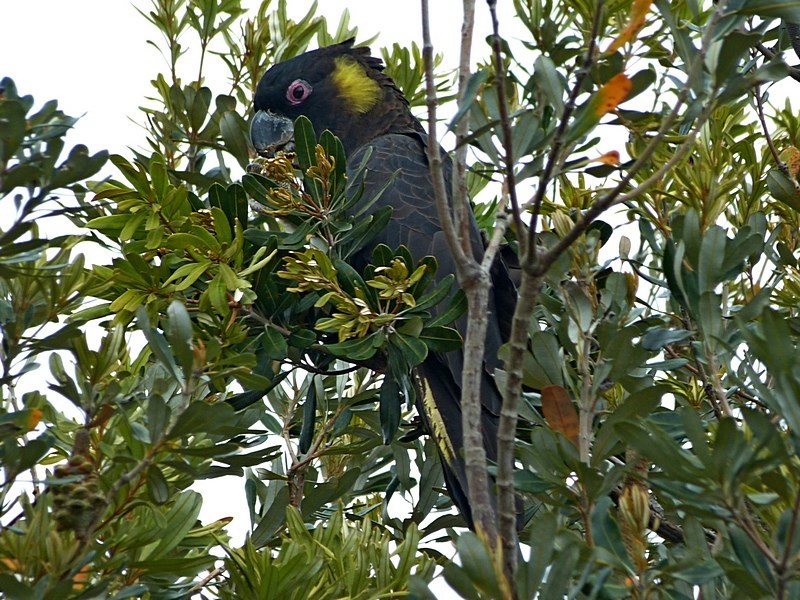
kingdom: Animalia
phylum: Chordata
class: Aves
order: Psittaciformes
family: Cacatuidae
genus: Zanda
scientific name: Zanda funerea
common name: Yellow-tailed black-cockatoo
